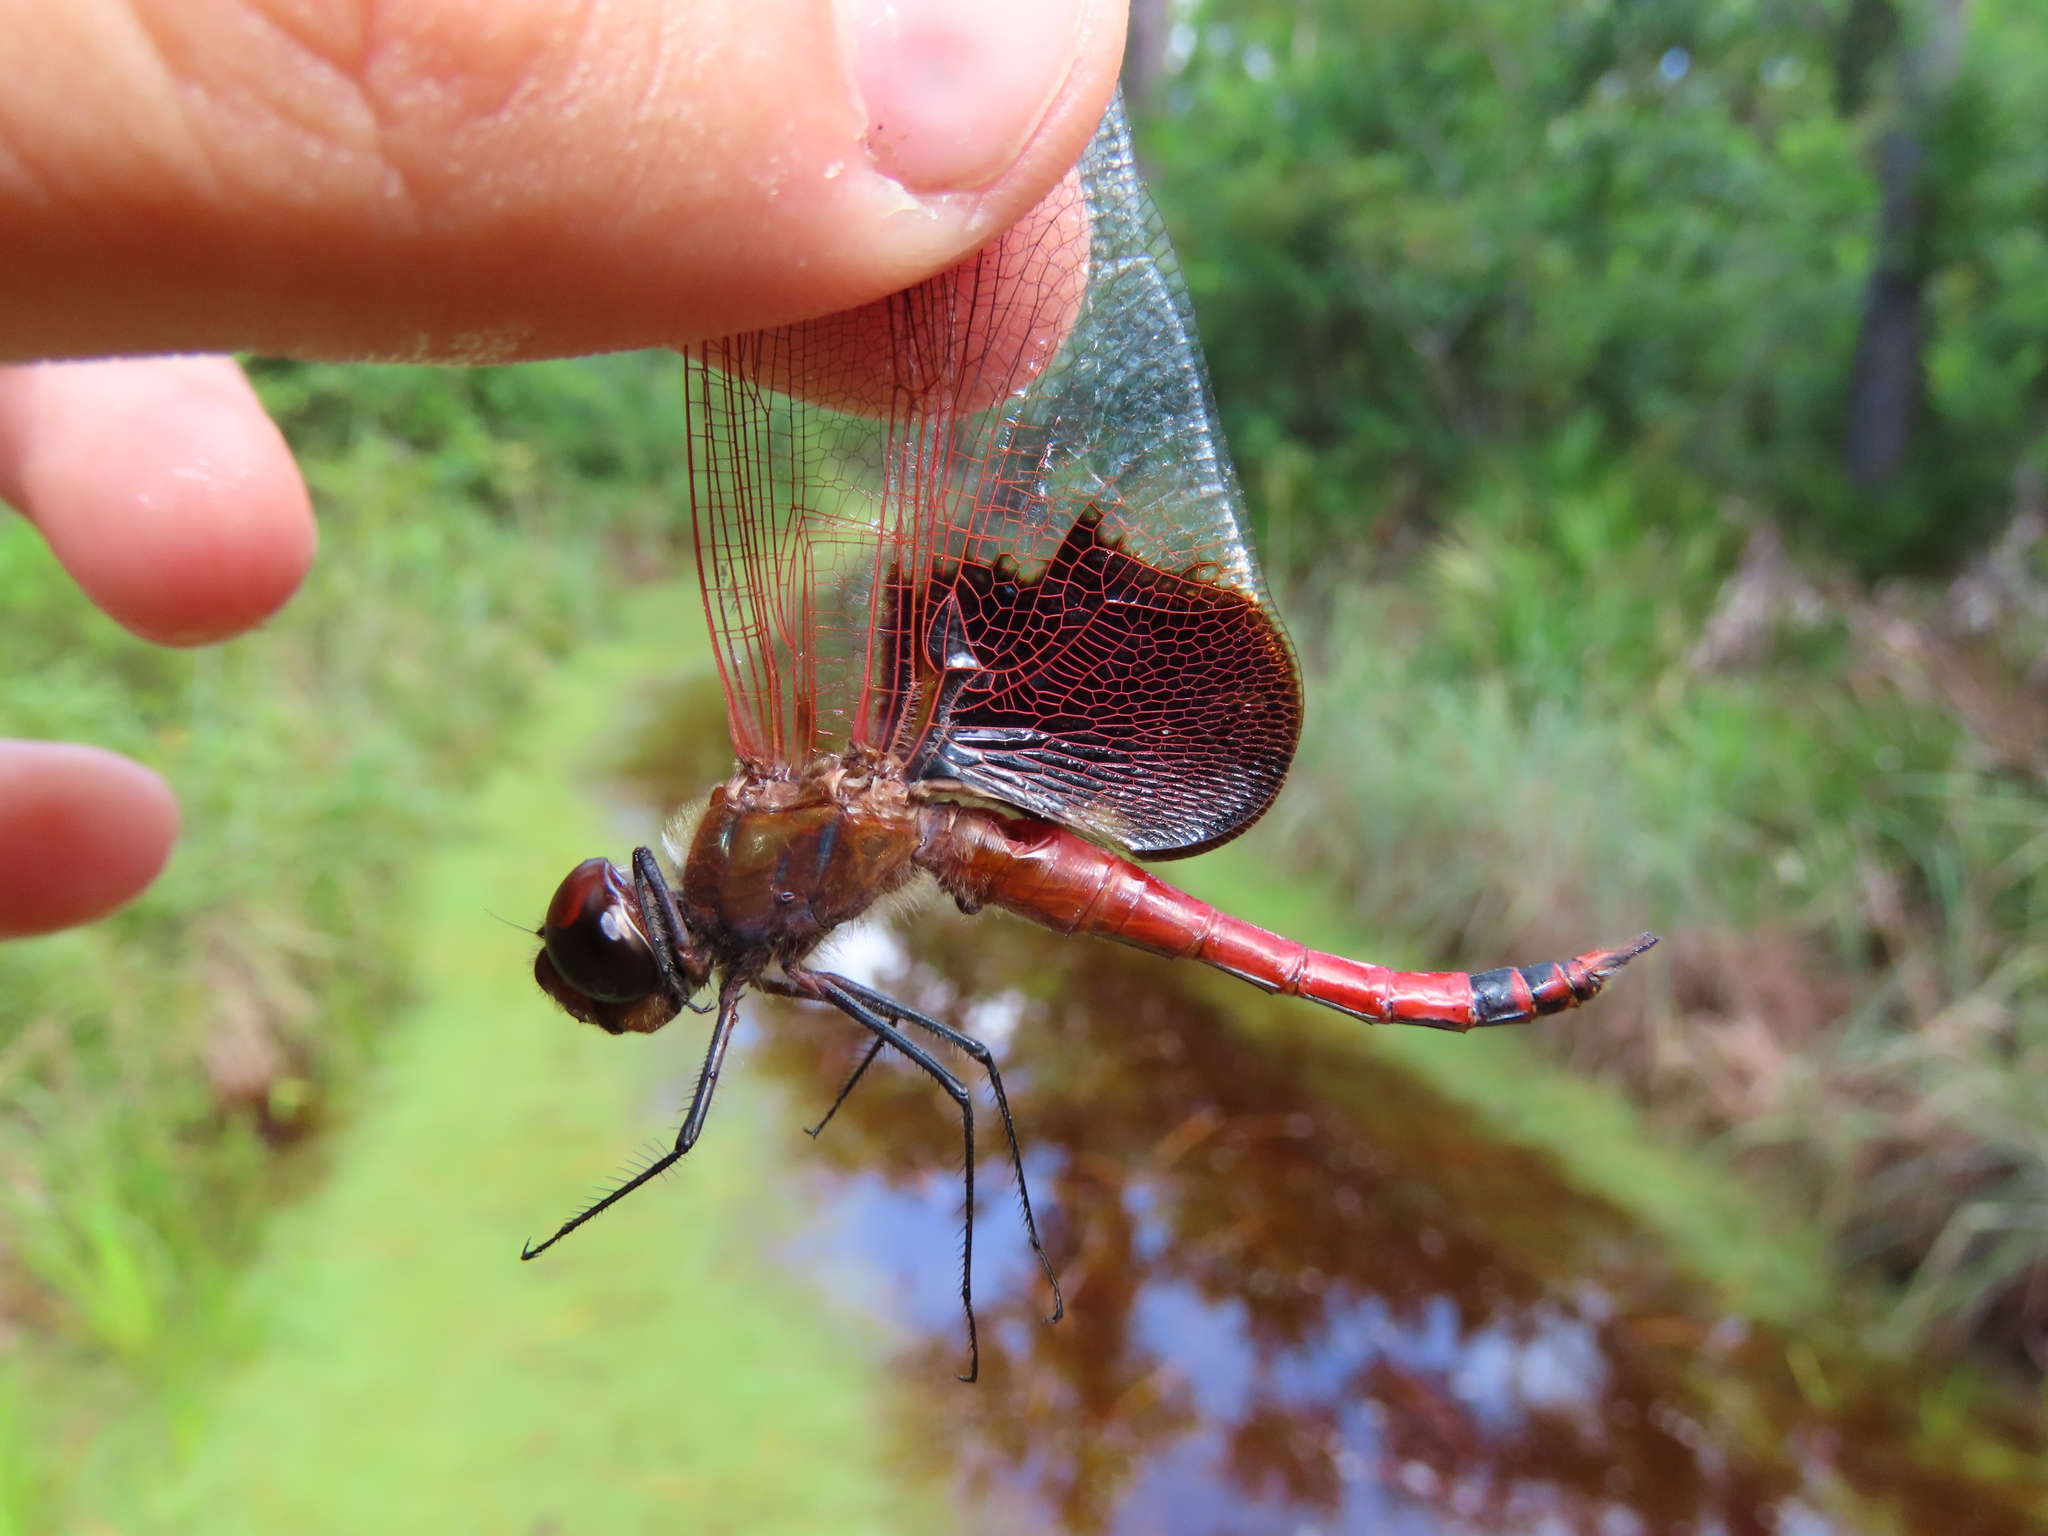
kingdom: Animalia
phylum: Arthropoda
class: Insecta
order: Odonata
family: Libellulidae
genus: Tramea
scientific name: Tramea carolina
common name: Carolina saddlebags
